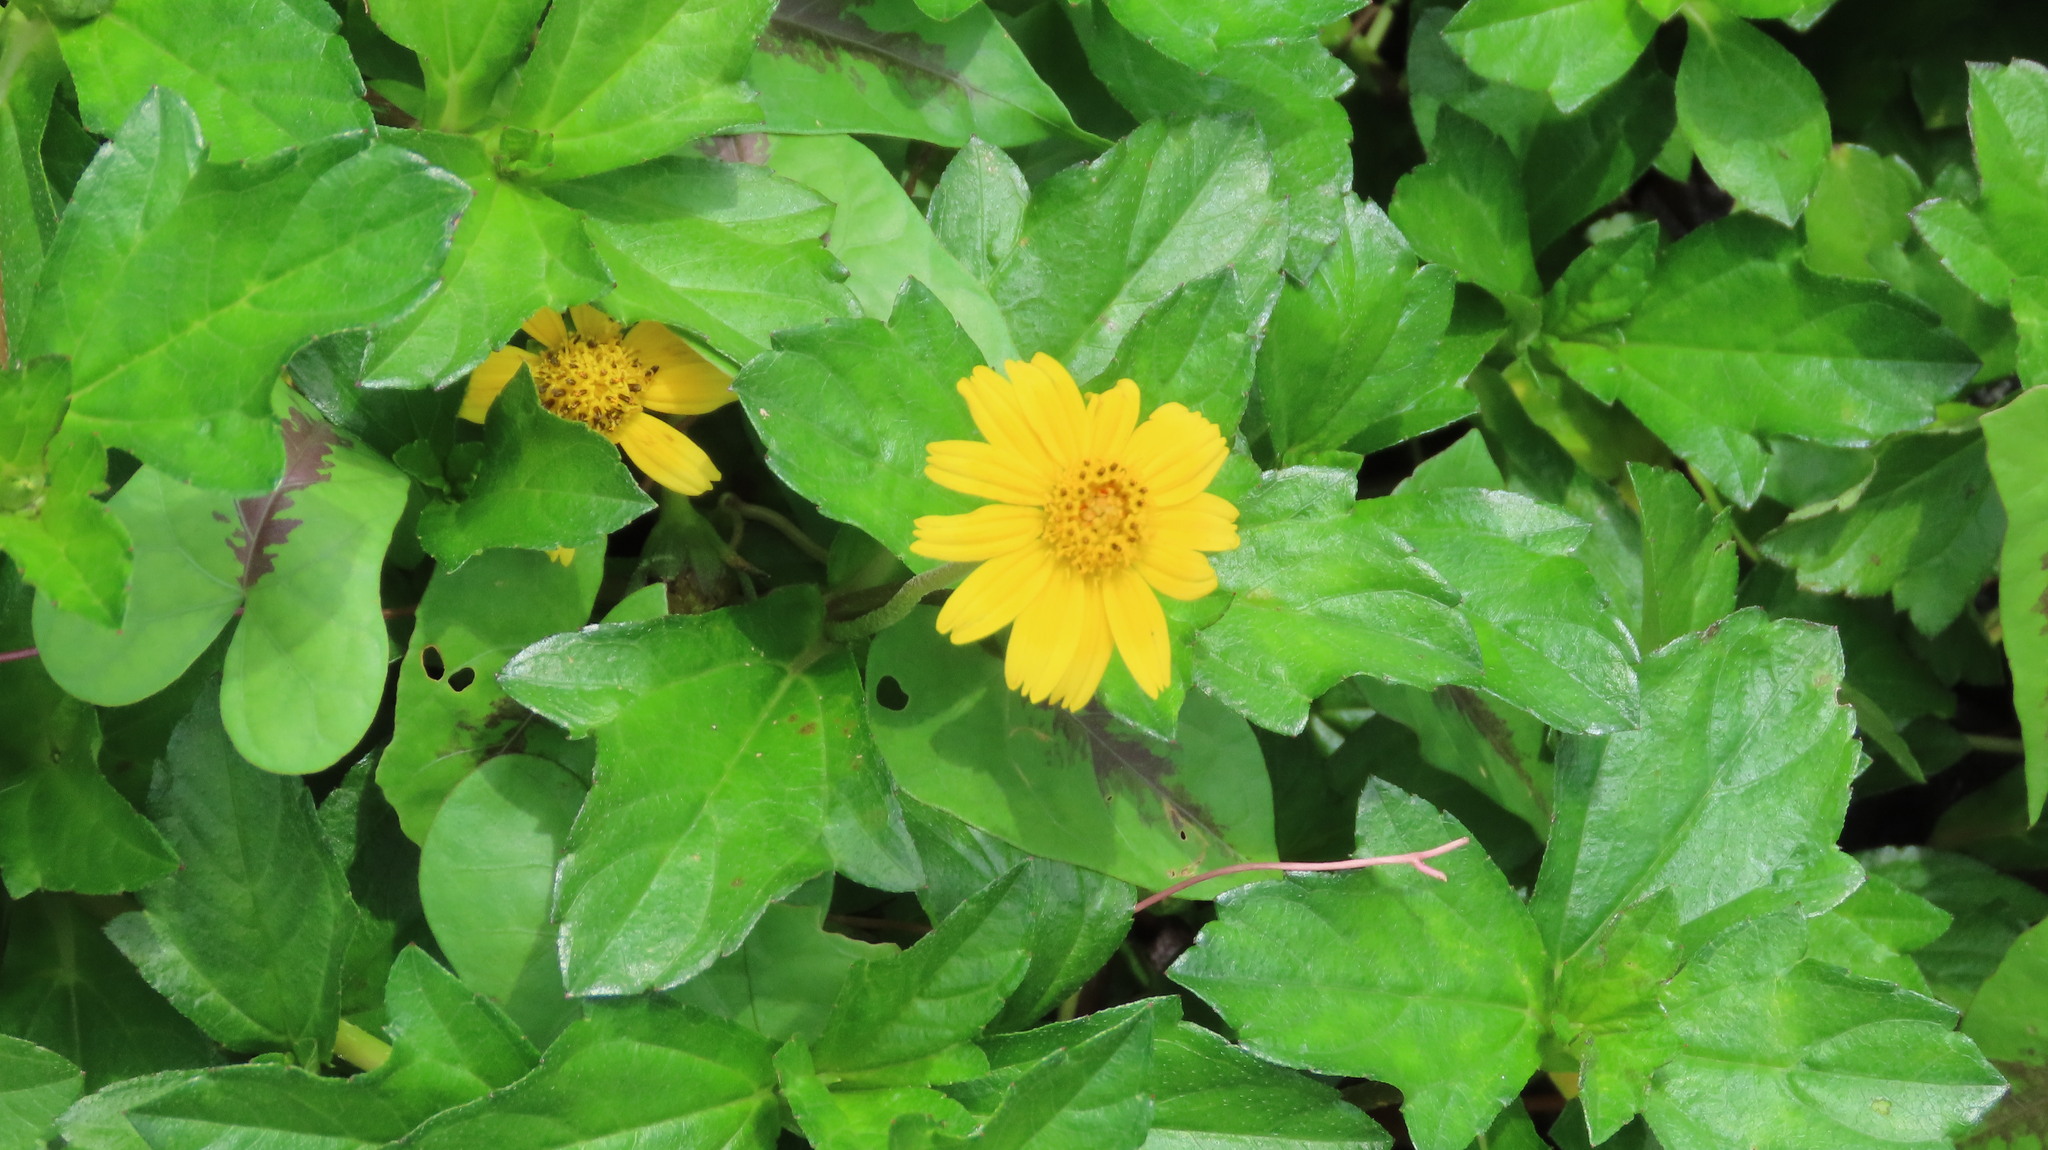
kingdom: Plantae
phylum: Tracheophyta
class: Magnoliopsida
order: Asterales
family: Asteraceae
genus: Sphagneticola
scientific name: Sphagneticola trilobata
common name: Bay biscayne creeping-oxeye
